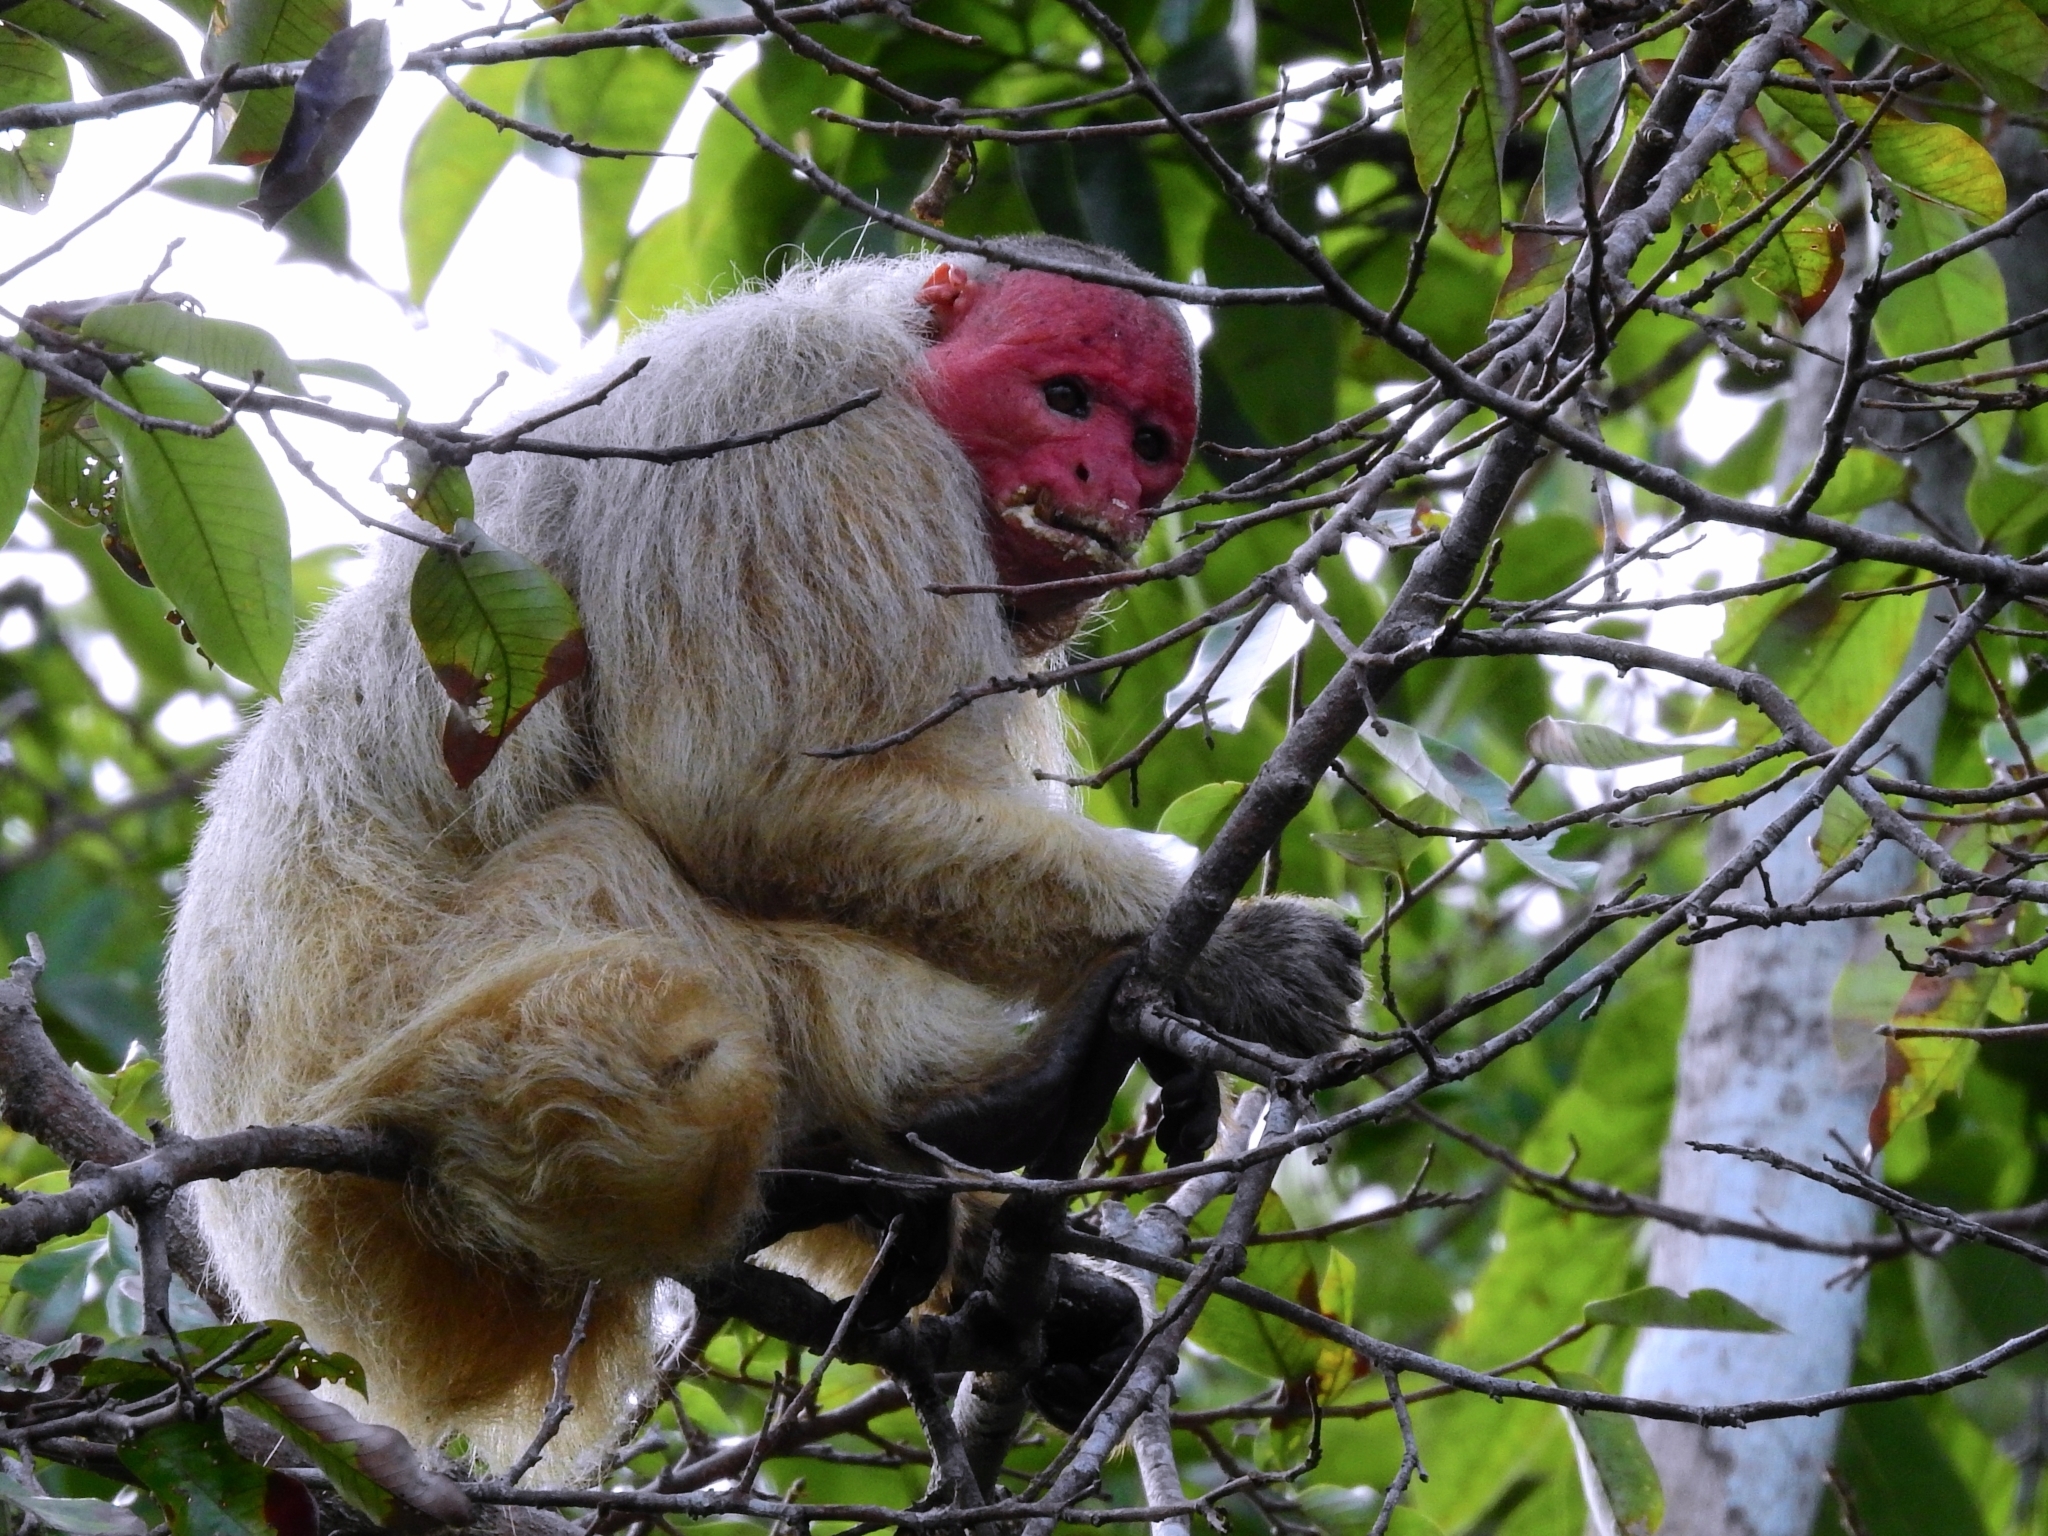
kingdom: Animalia
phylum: Chordata
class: Mammalia
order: Primates
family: Pitheciidae
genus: Cacajao
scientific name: Cacajao calvus
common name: Bald uacari
